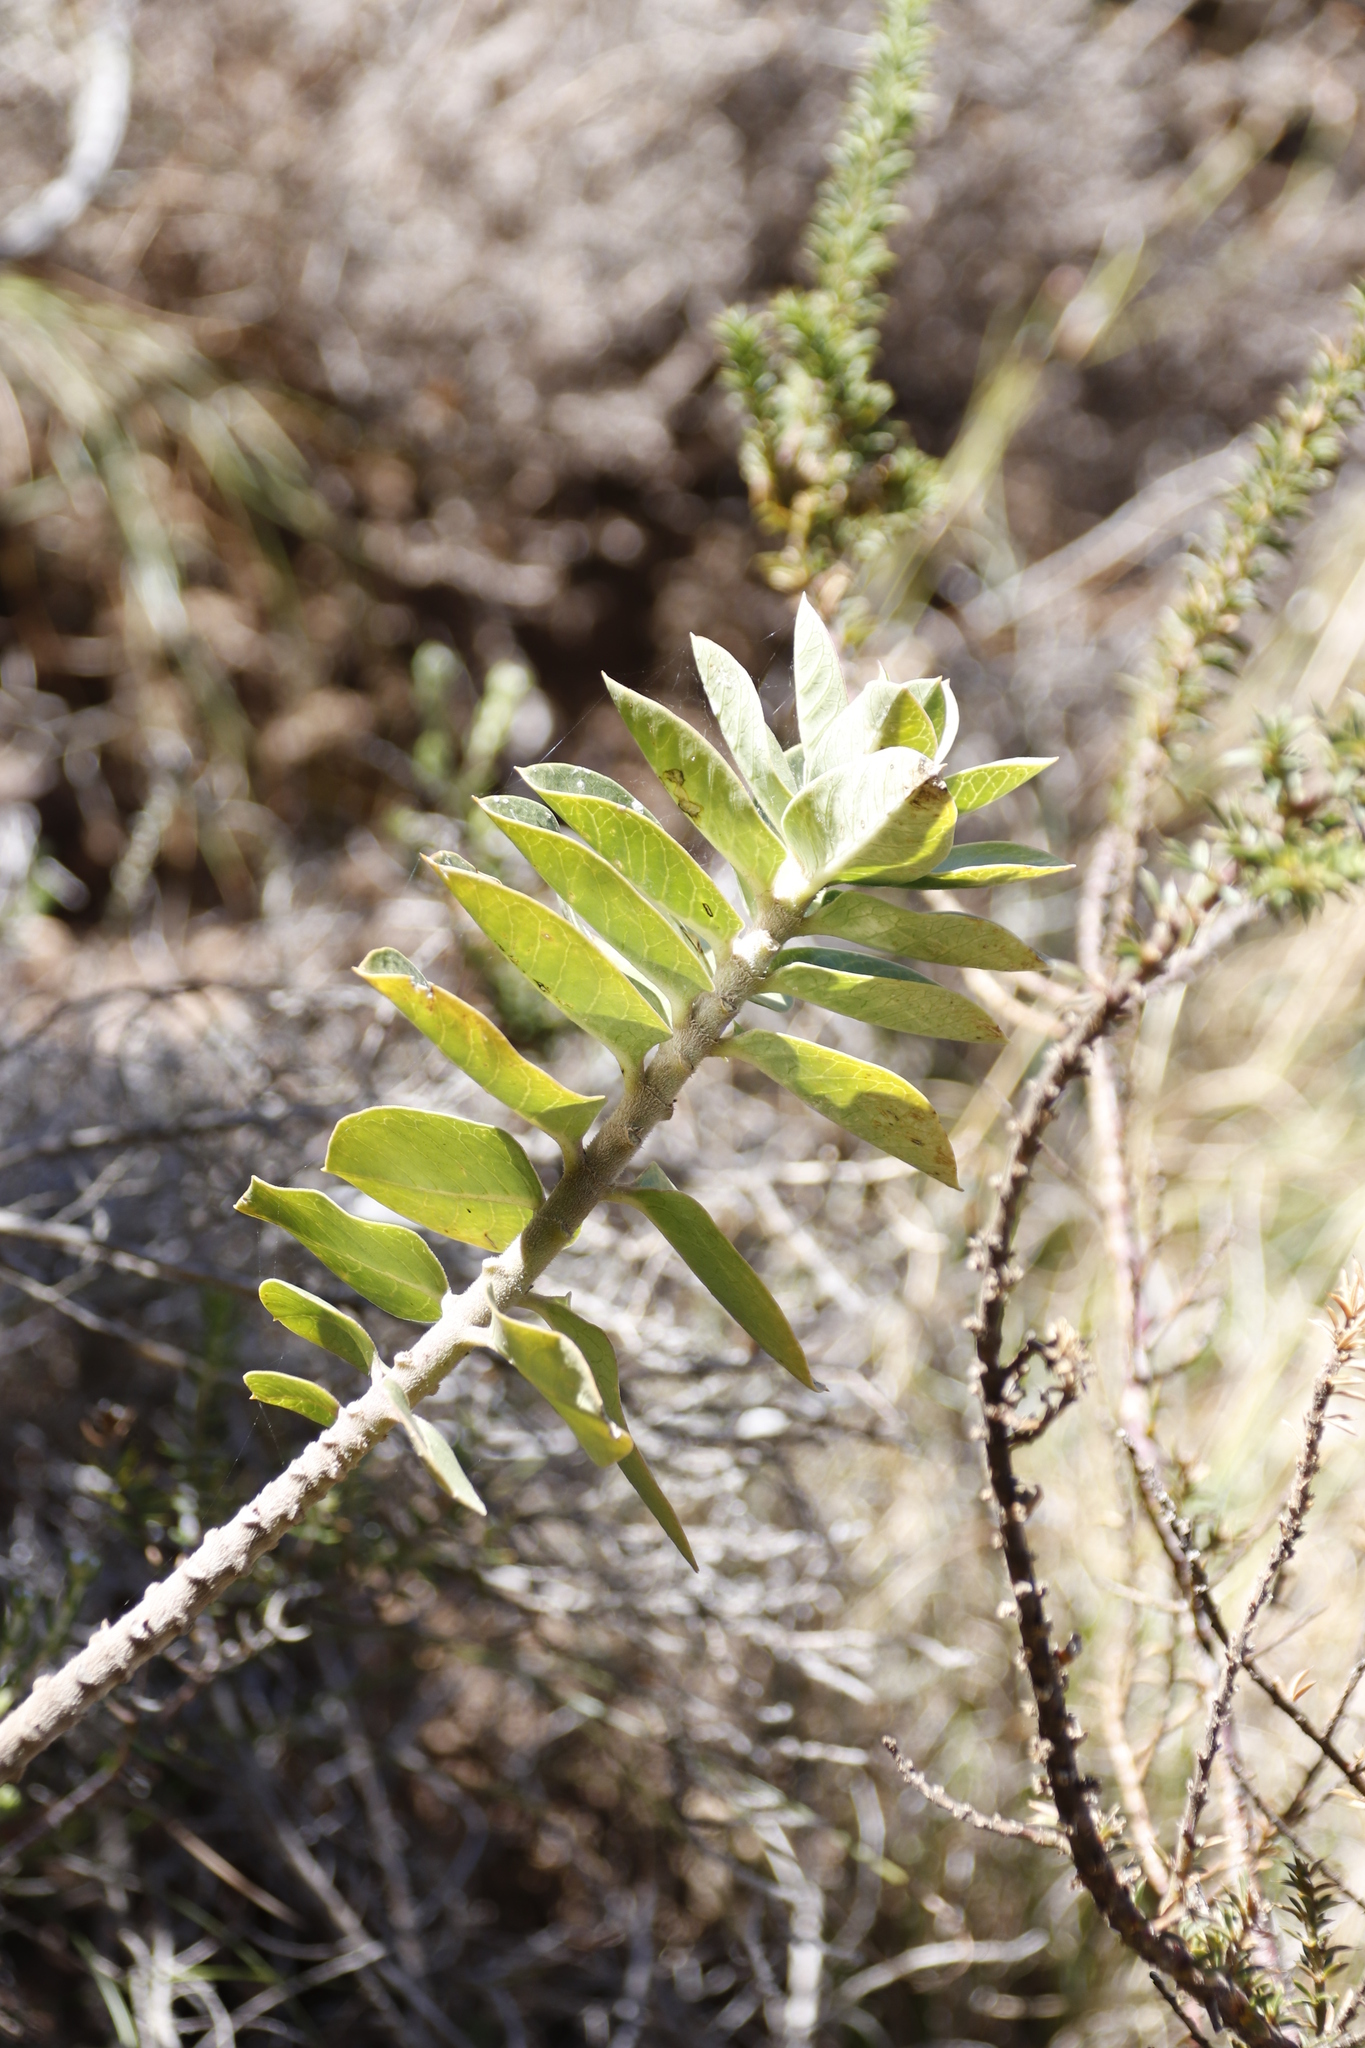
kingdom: Plantae
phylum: Tracheophyta
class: Magnoliopsida
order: Gentianales
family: Apocynaceae
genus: Gomphocarpus
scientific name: Gomphocarpus cancellatus
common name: Wild cotton
